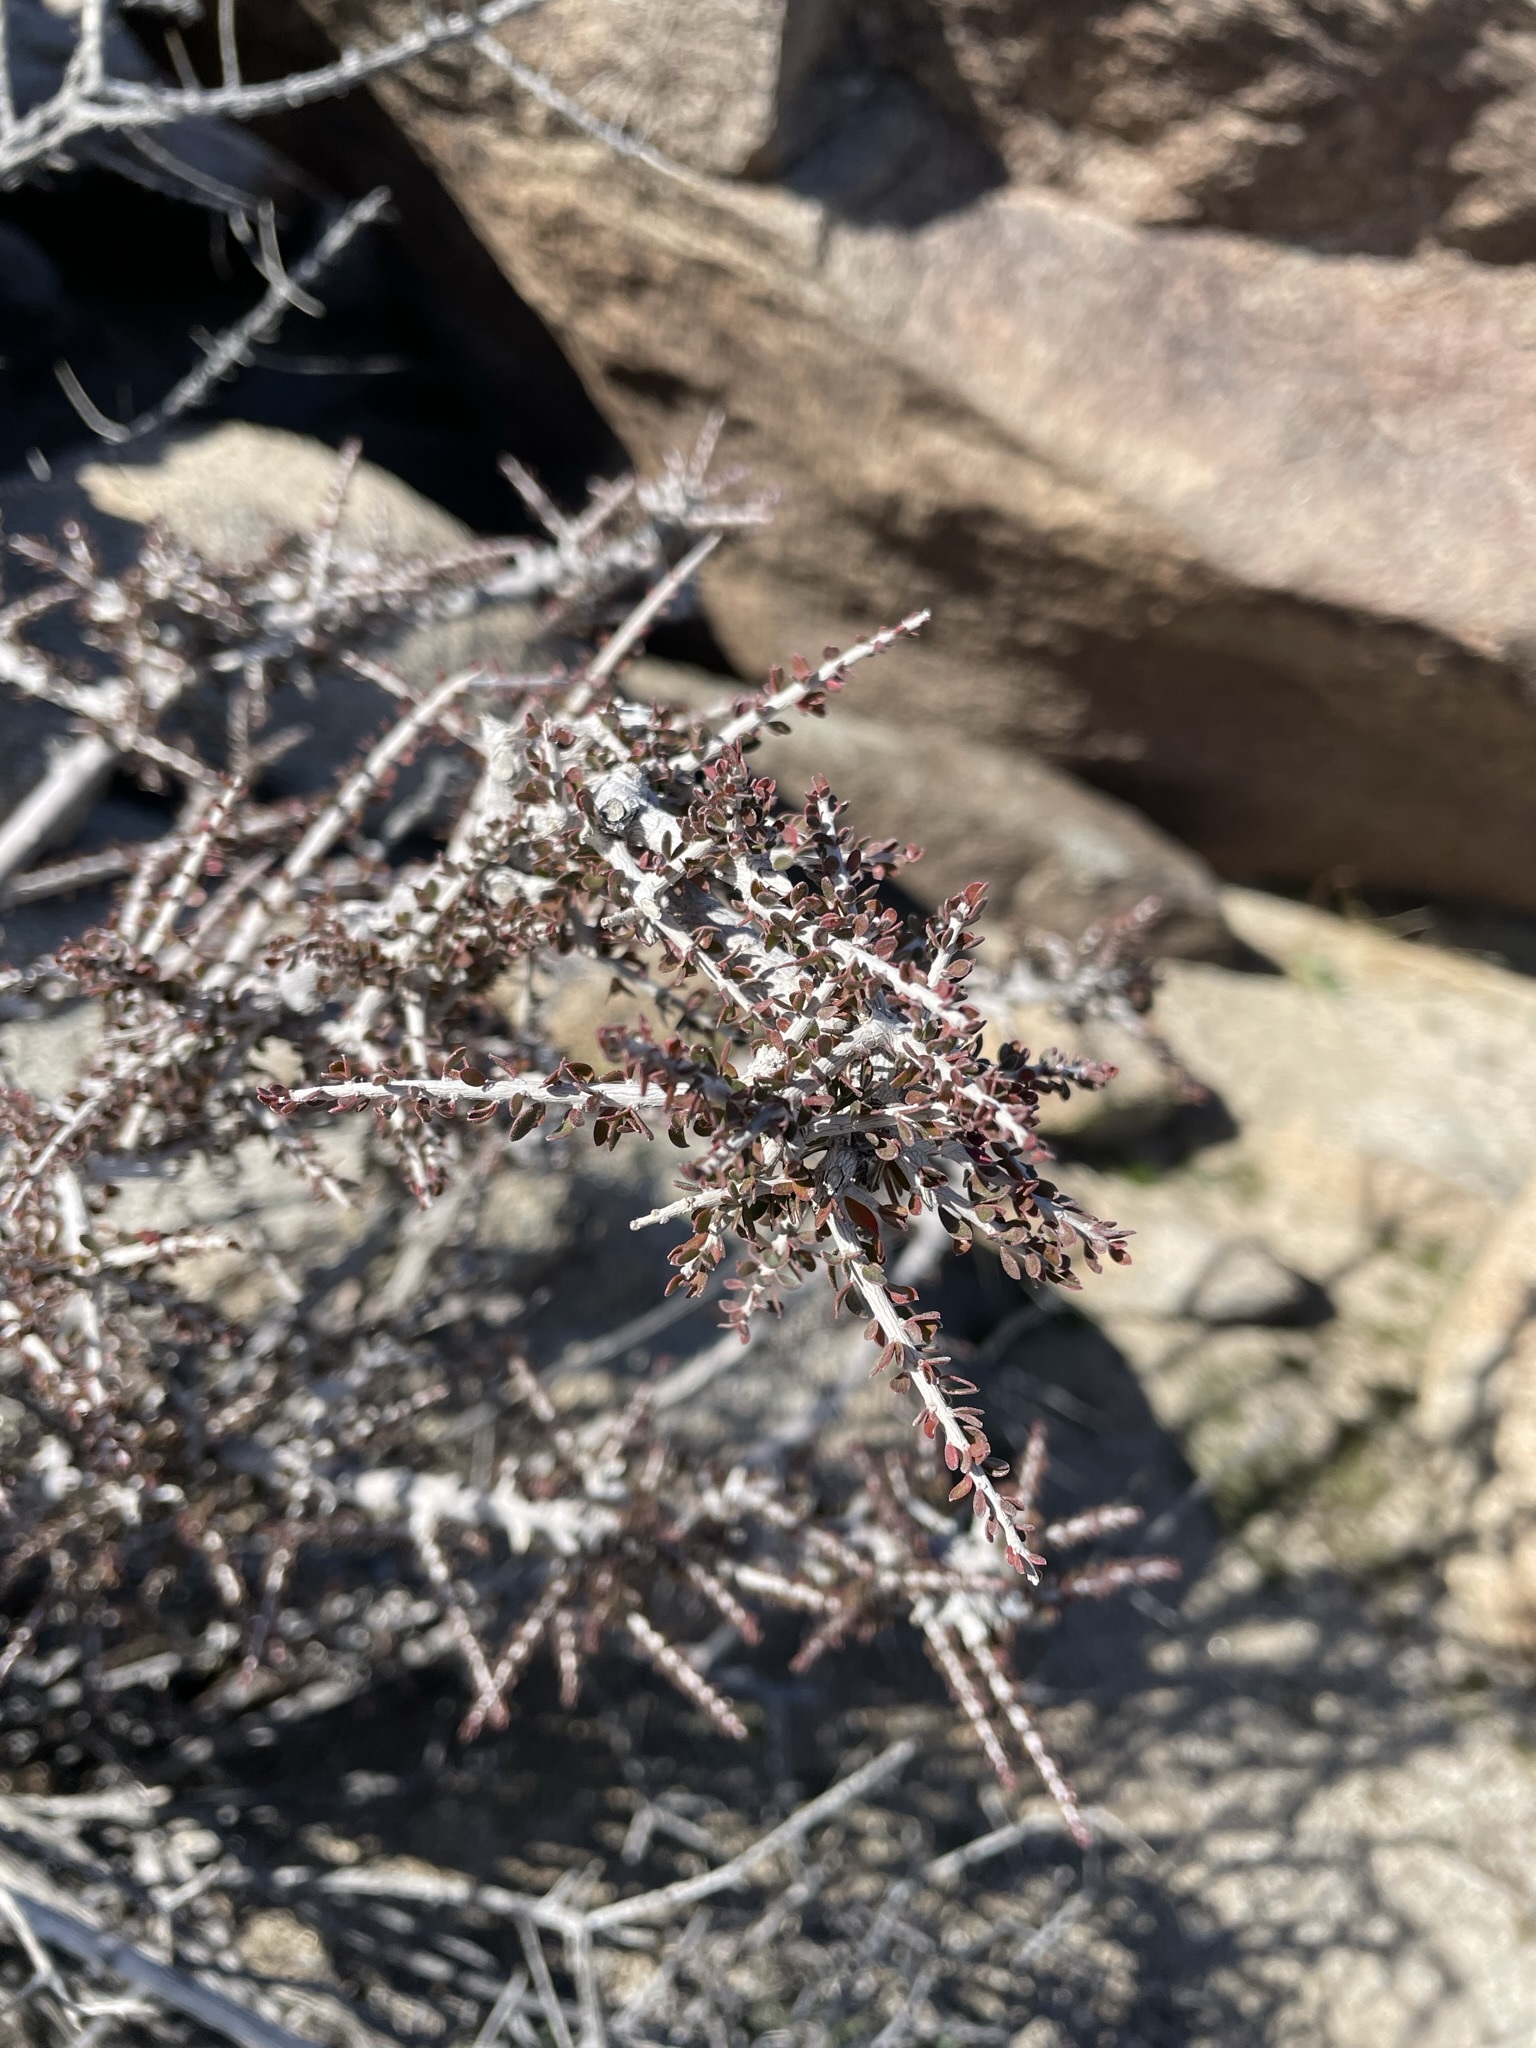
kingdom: Plantae
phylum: Tracheophyta
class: Magnoliopsida
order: Malpighiales
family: Picrodendraceae
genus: Tetracoccus
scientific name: Tetracoccus hallii
